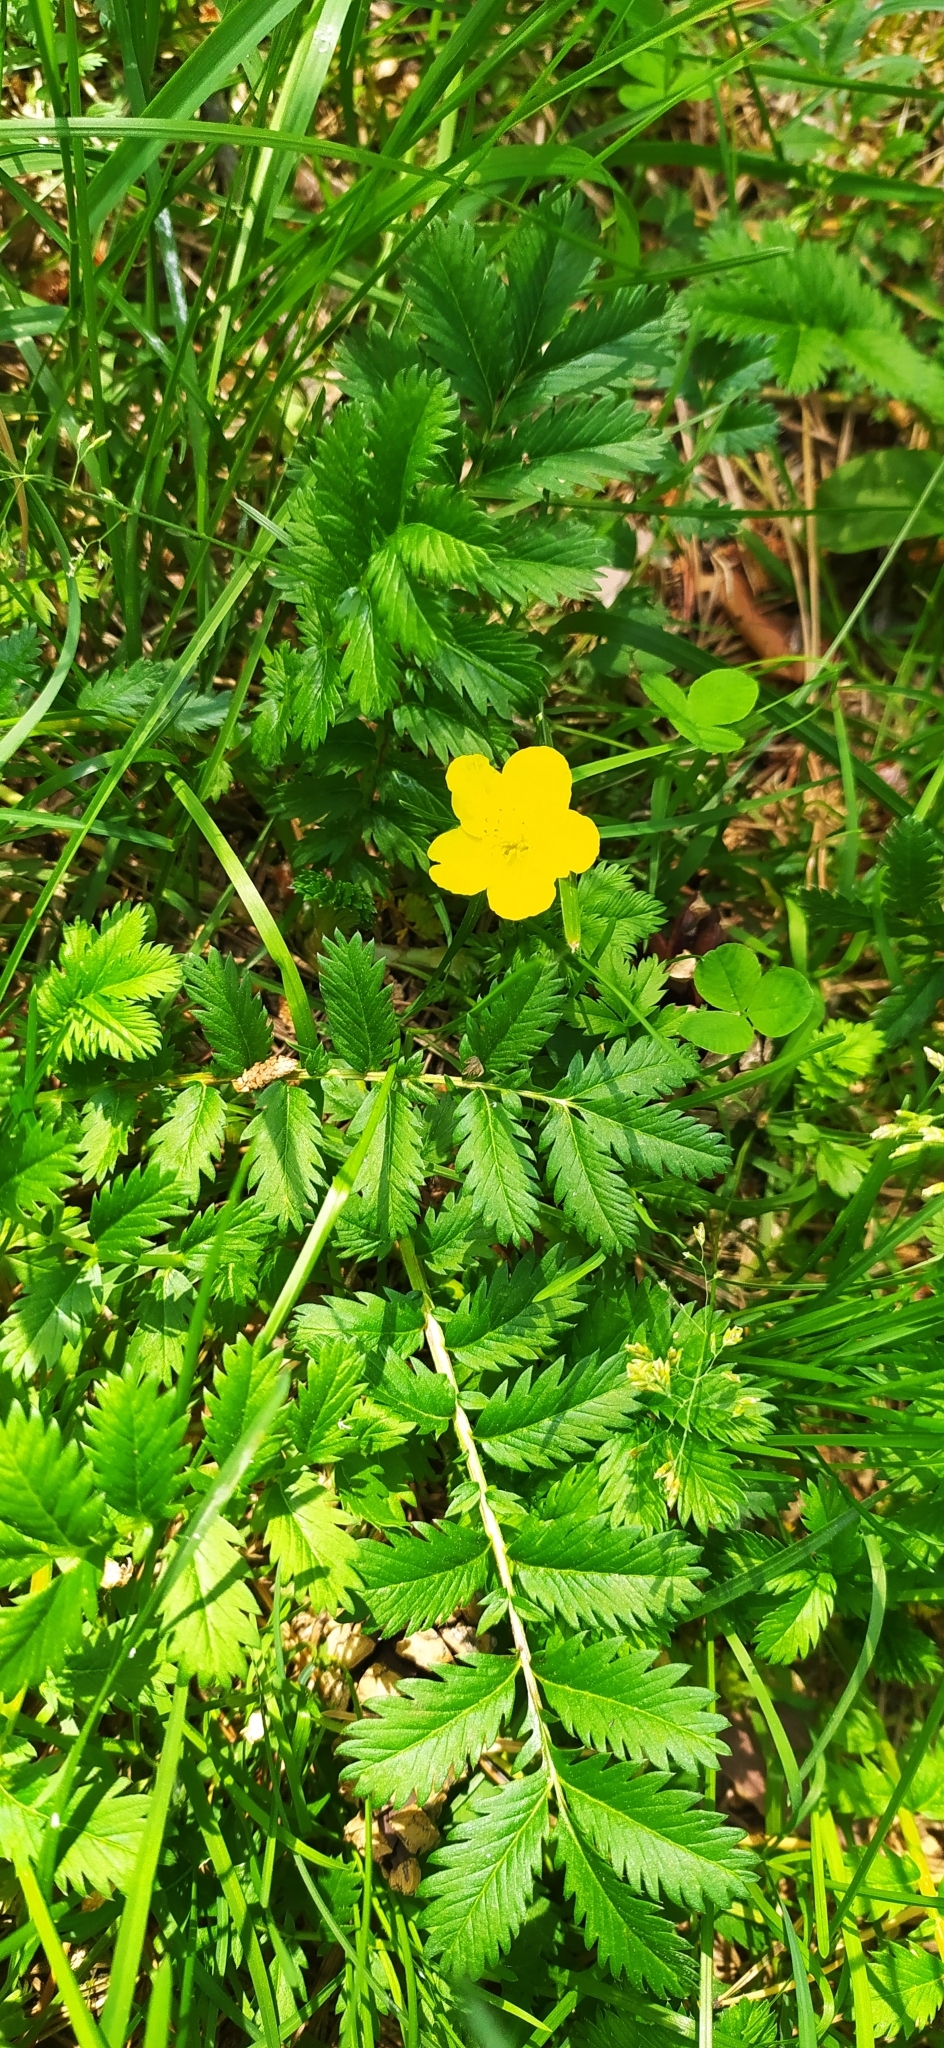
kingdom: Plantae
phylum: Tracheophyta
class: Magnoliopsida
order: Rosales
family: Rosaceae
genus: Argentina
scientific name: Argentina anserina
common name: Common silverweed
